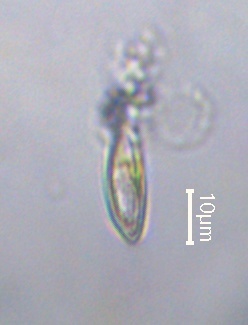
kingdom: Chromista
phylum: Ochrophyta
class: Bacillariophyceae
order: Cymbellales
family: Rhoicospheniaceae
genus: Rhoicosphenia
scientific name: Rhoicosphenia abbreviata
